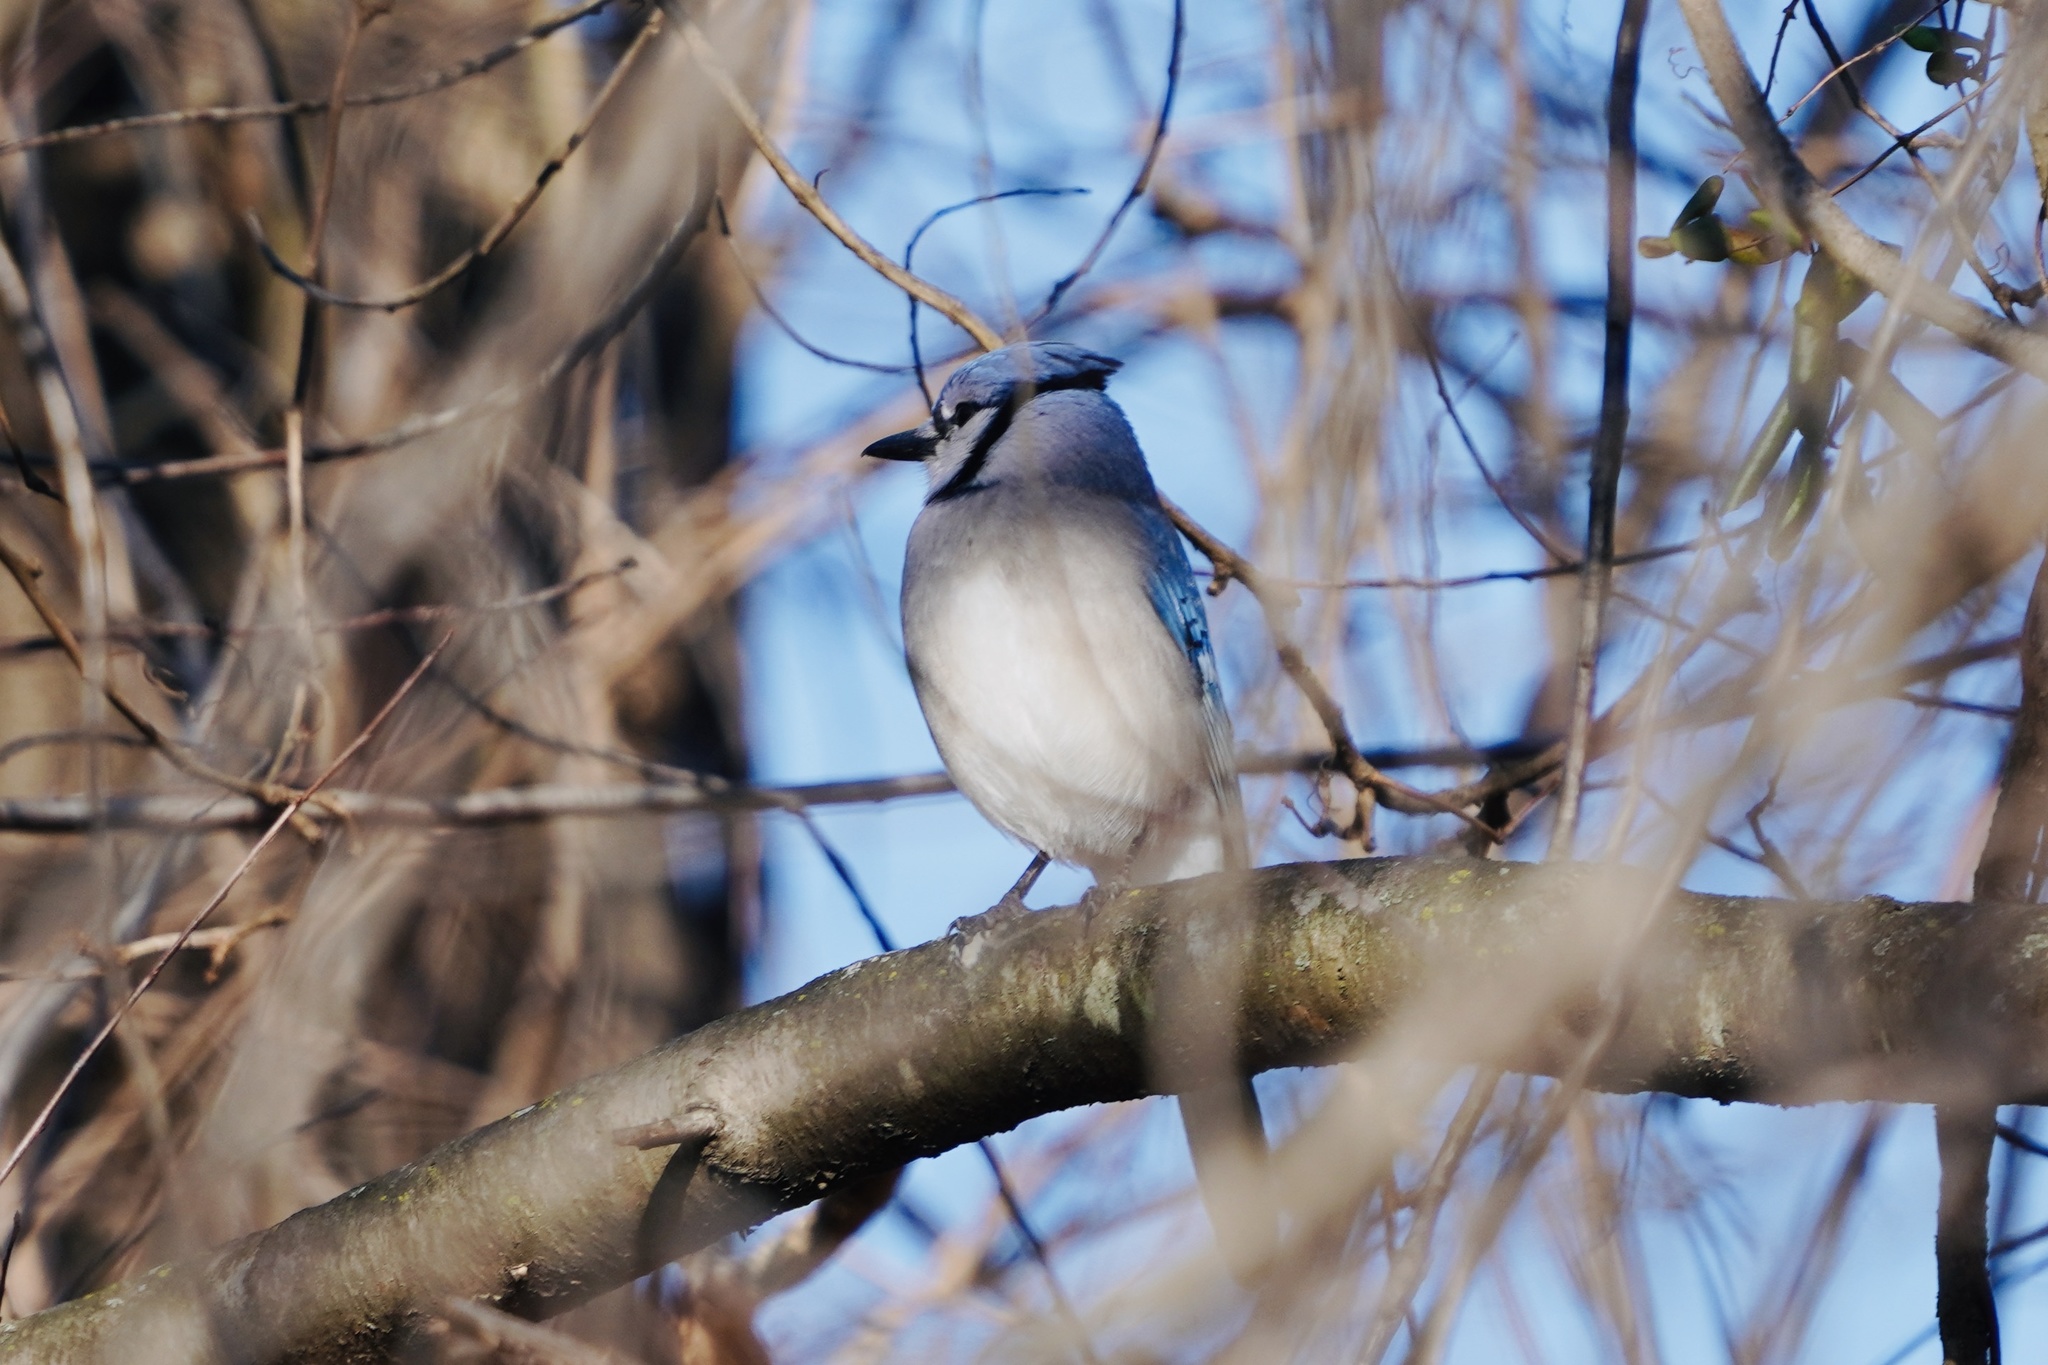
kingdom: Animalia
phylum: Chordata
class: Aves
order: Passeriformes
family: Corvidae
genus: Cyanocitta
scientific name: Cyanocitta cristata
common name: Blue jay
